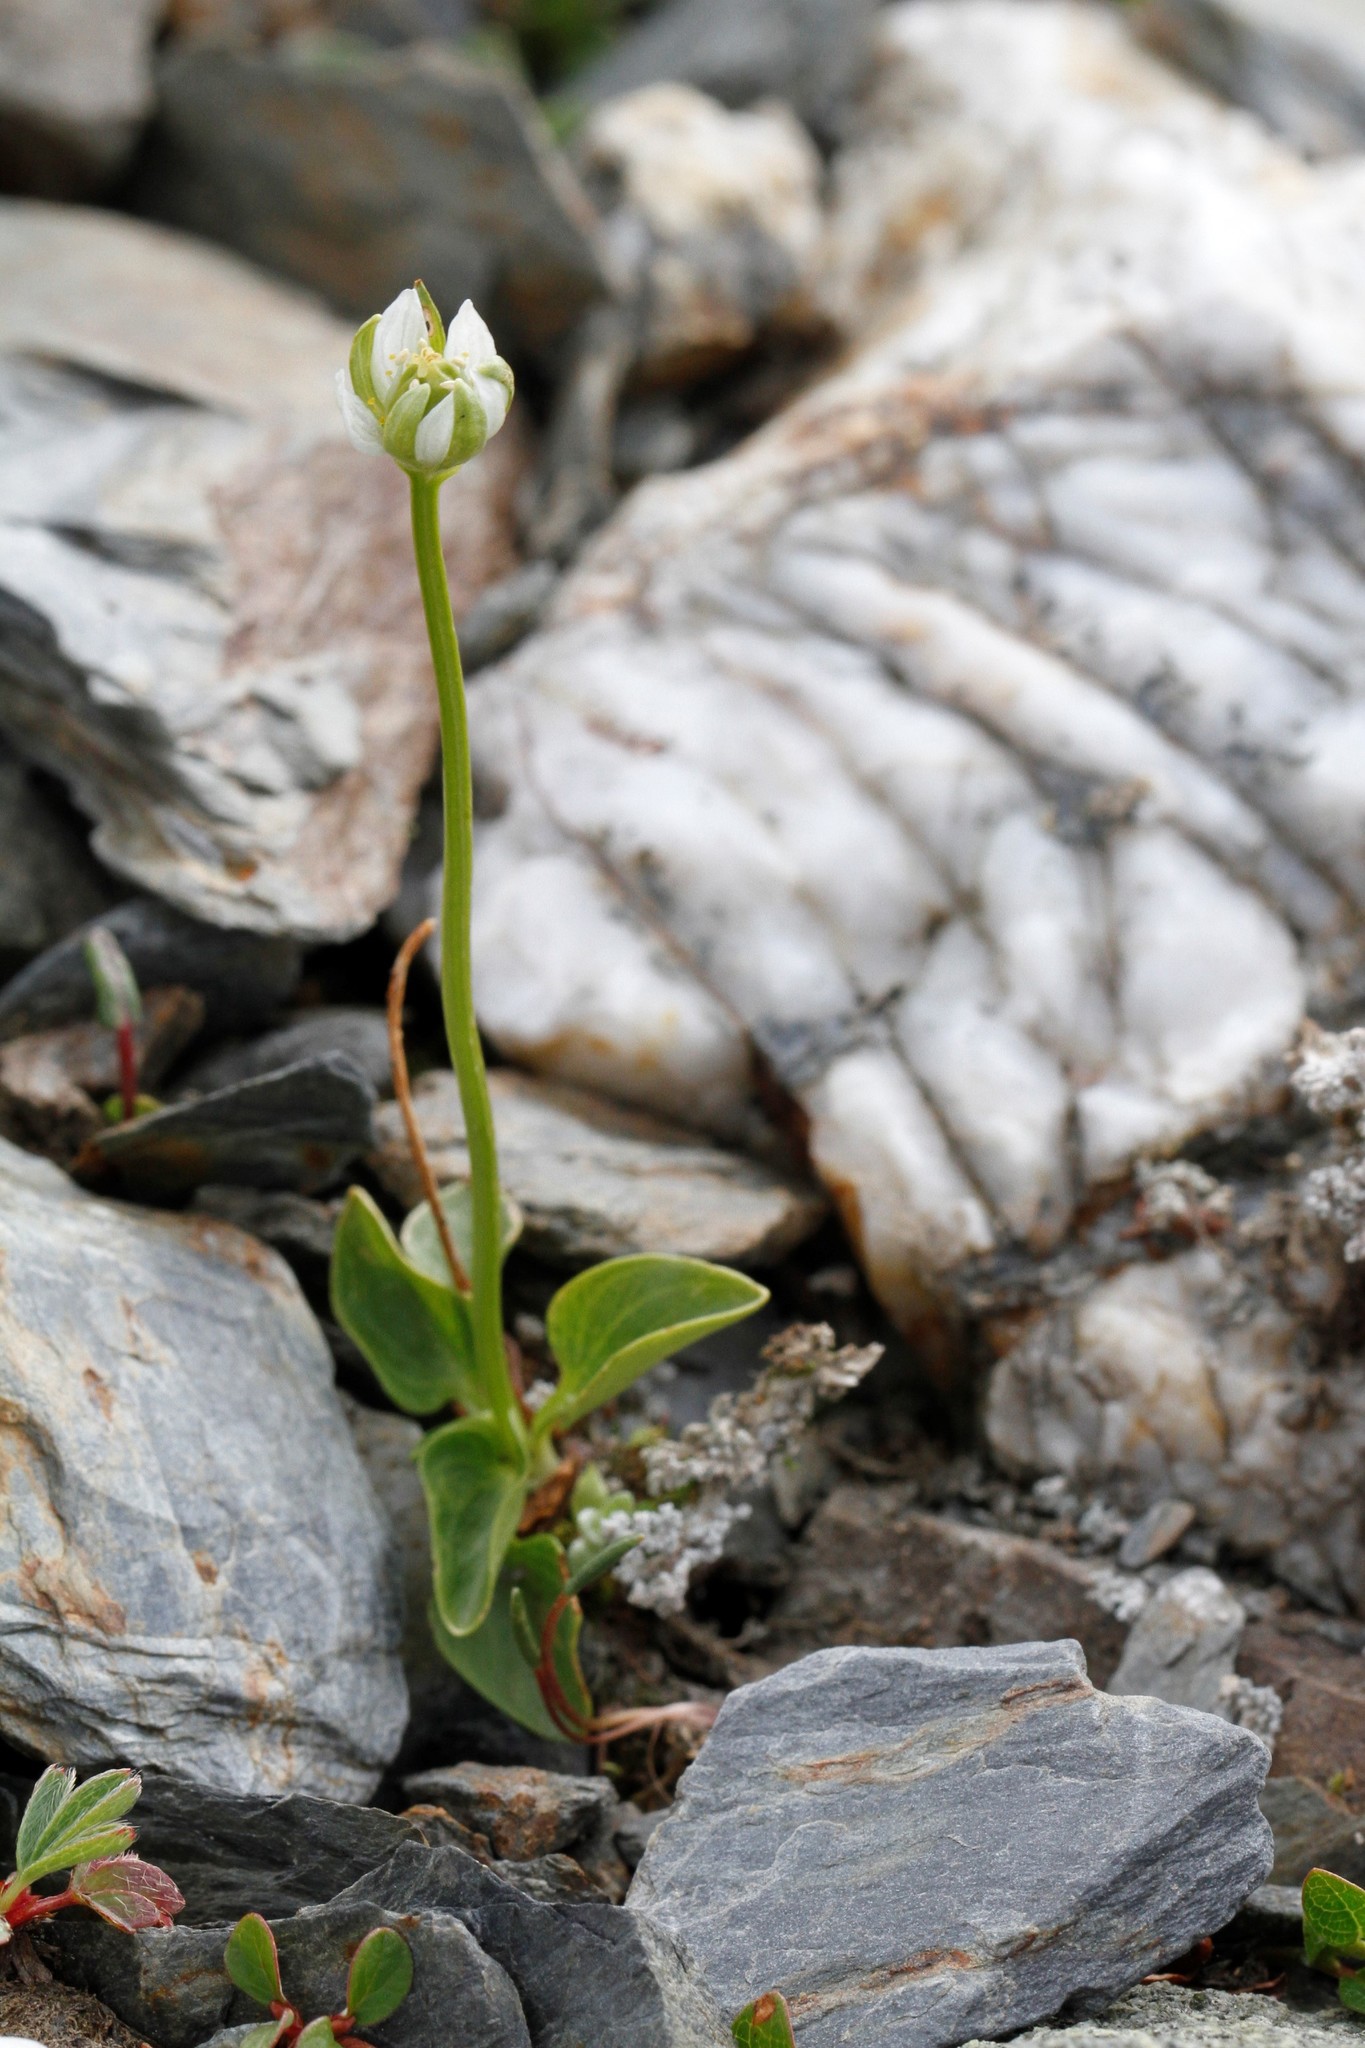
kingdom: Plantae
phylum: Tracheophyta
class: Magnoliopsida
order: Celastrales
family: Parnassiaceae
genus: Parnassia
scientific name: Parnassia kotzebuei
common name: Kotzebue's grass-of-parnassus
